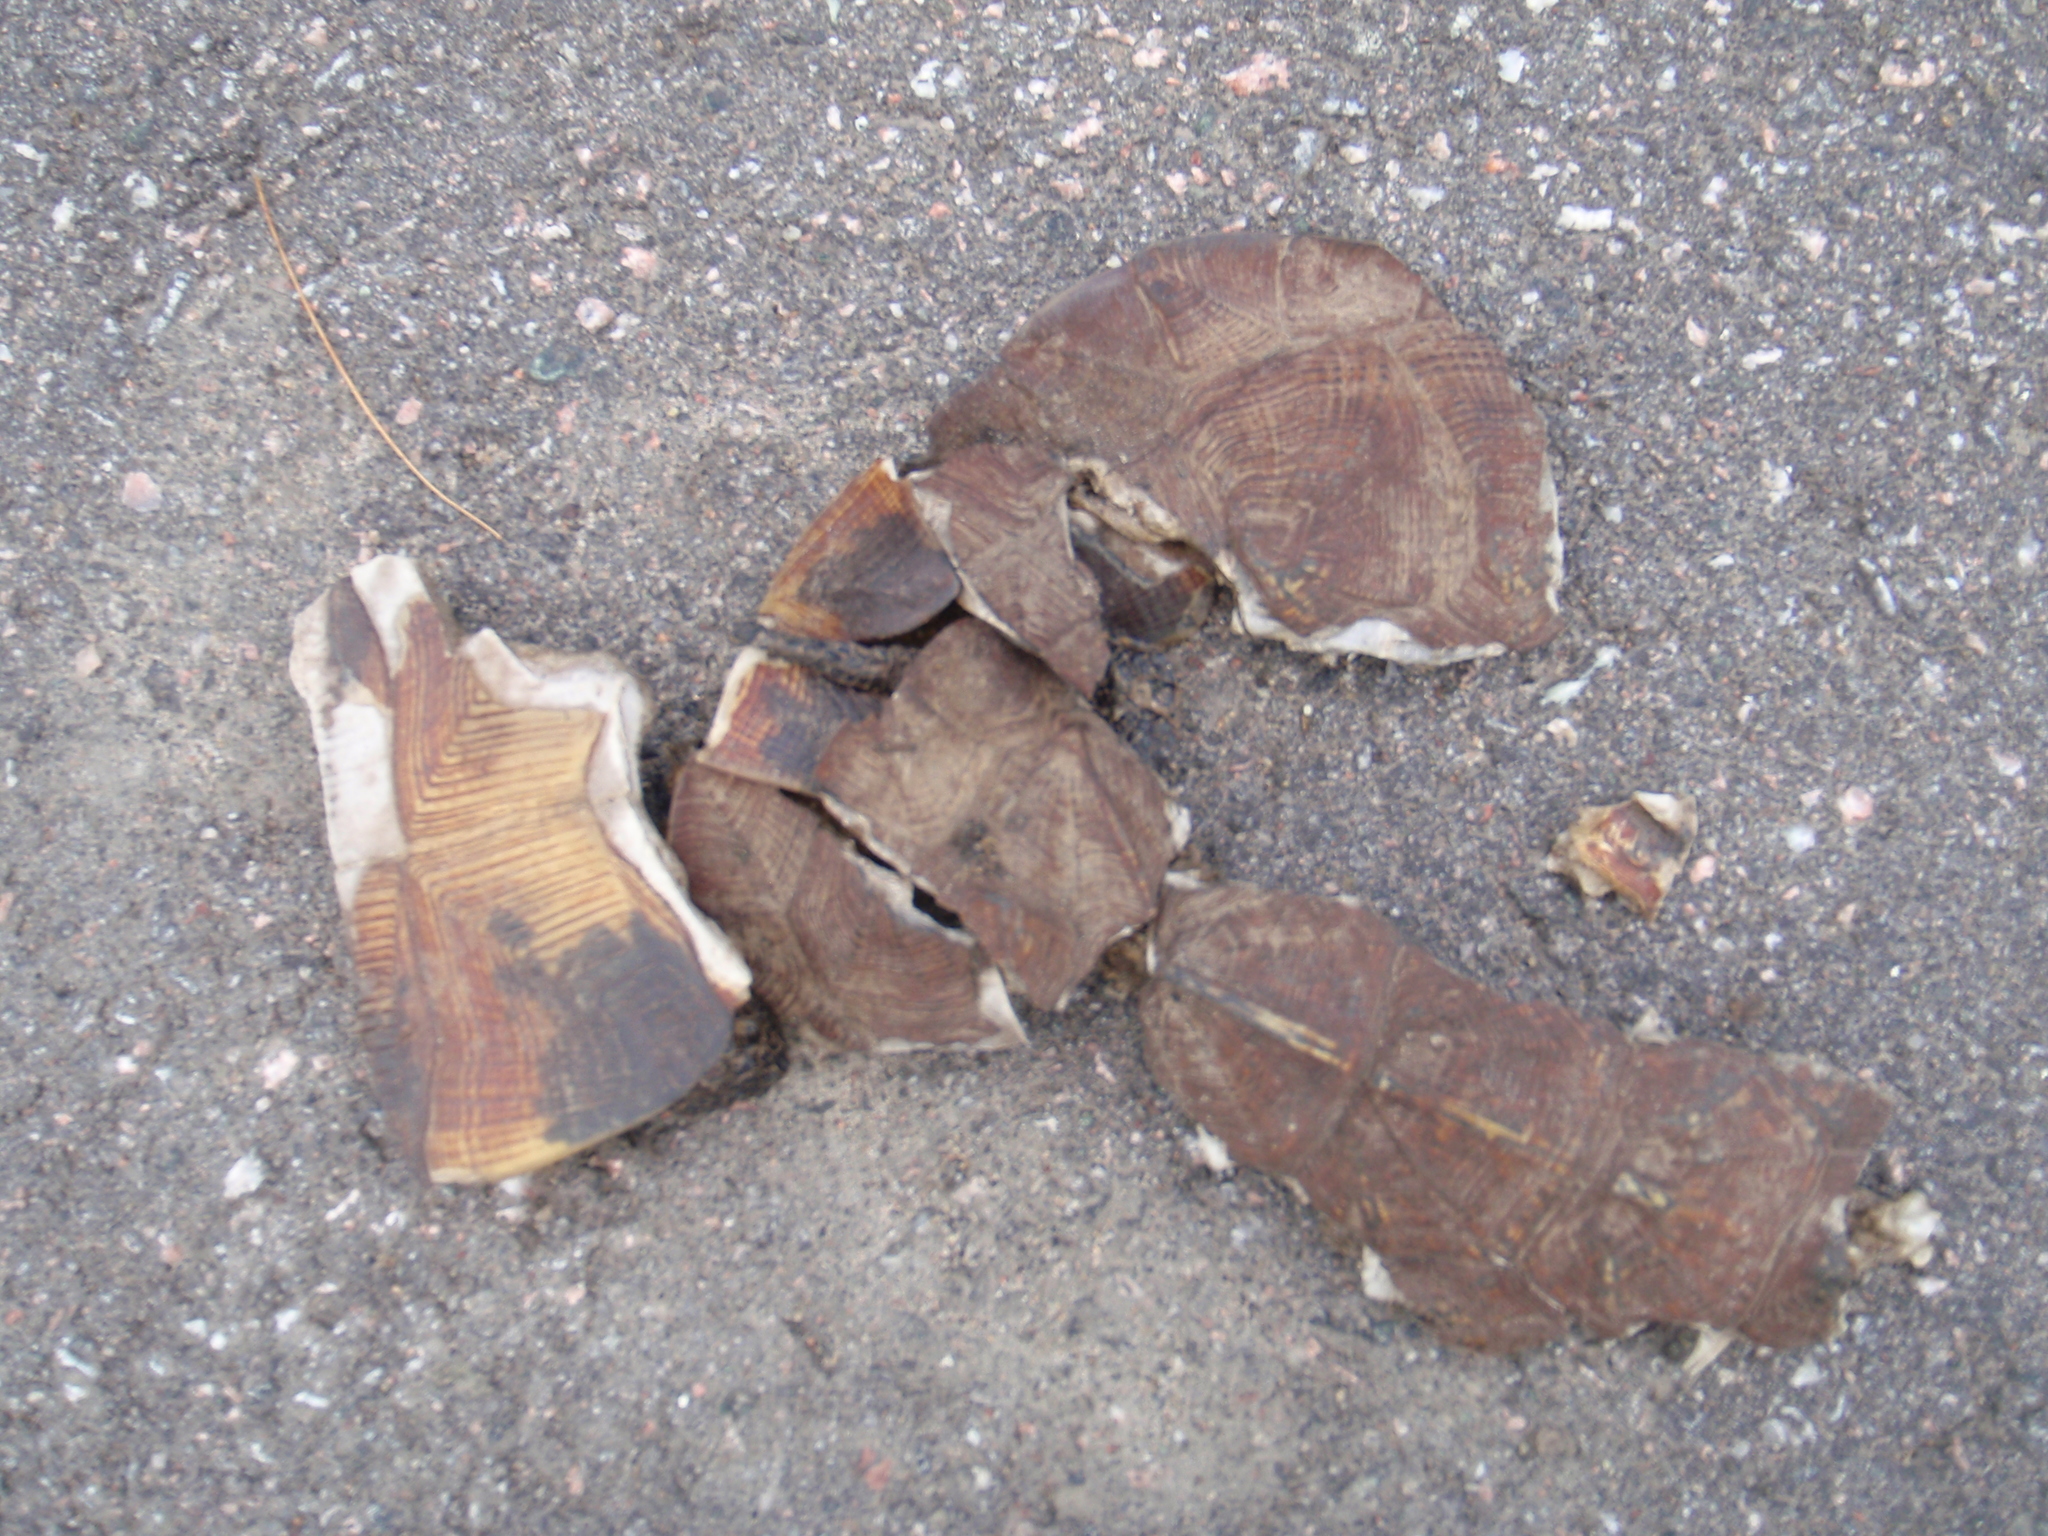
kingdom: Animalia
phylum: Chordata
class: Testudines
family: Emydidae
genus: Glyptemys
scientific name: Glyptemys insculpta
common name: Wood turtle
